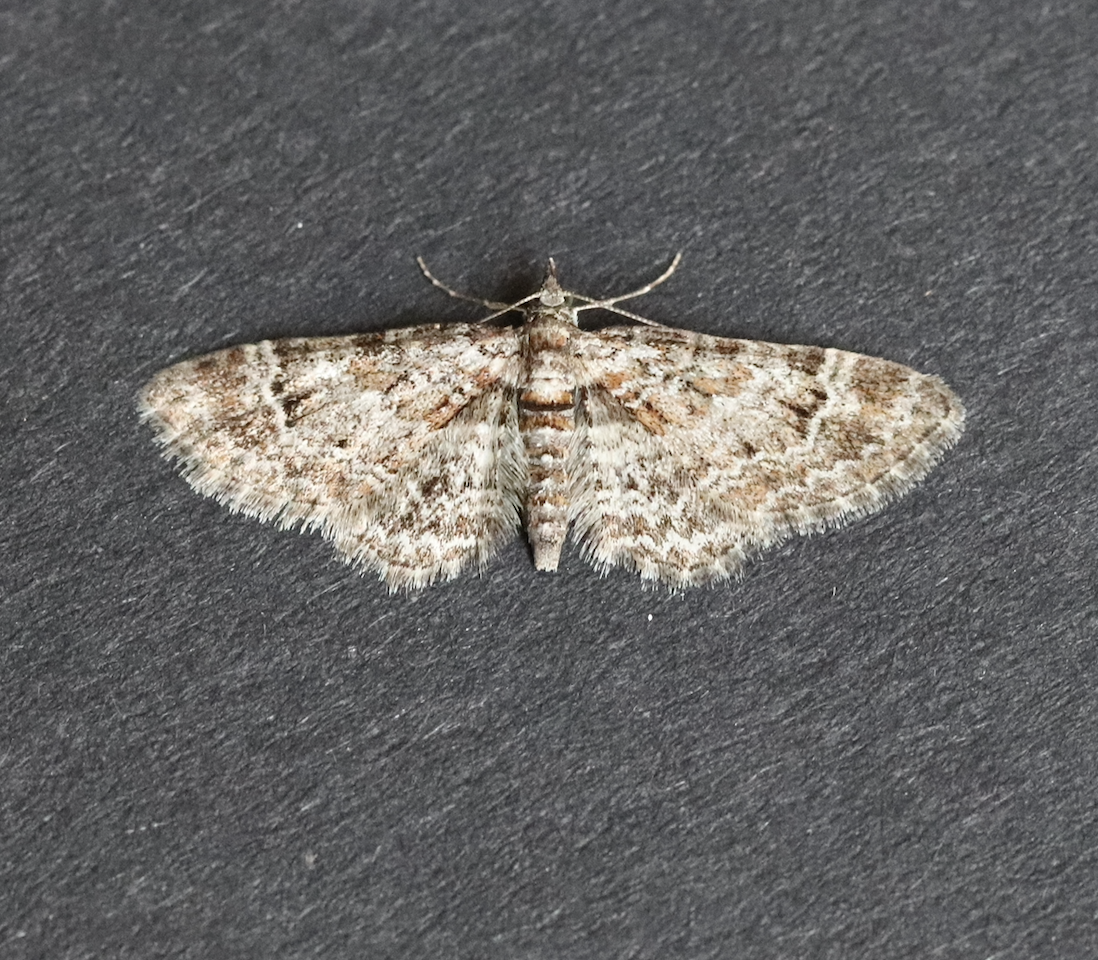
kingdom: Animalia
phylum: Arthropoda
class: Insecta
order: Lepidoptera
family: Geometridae
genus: Gymnoscelis
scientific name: Gymnoscelis rufifasciata
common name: Double-striped pug
